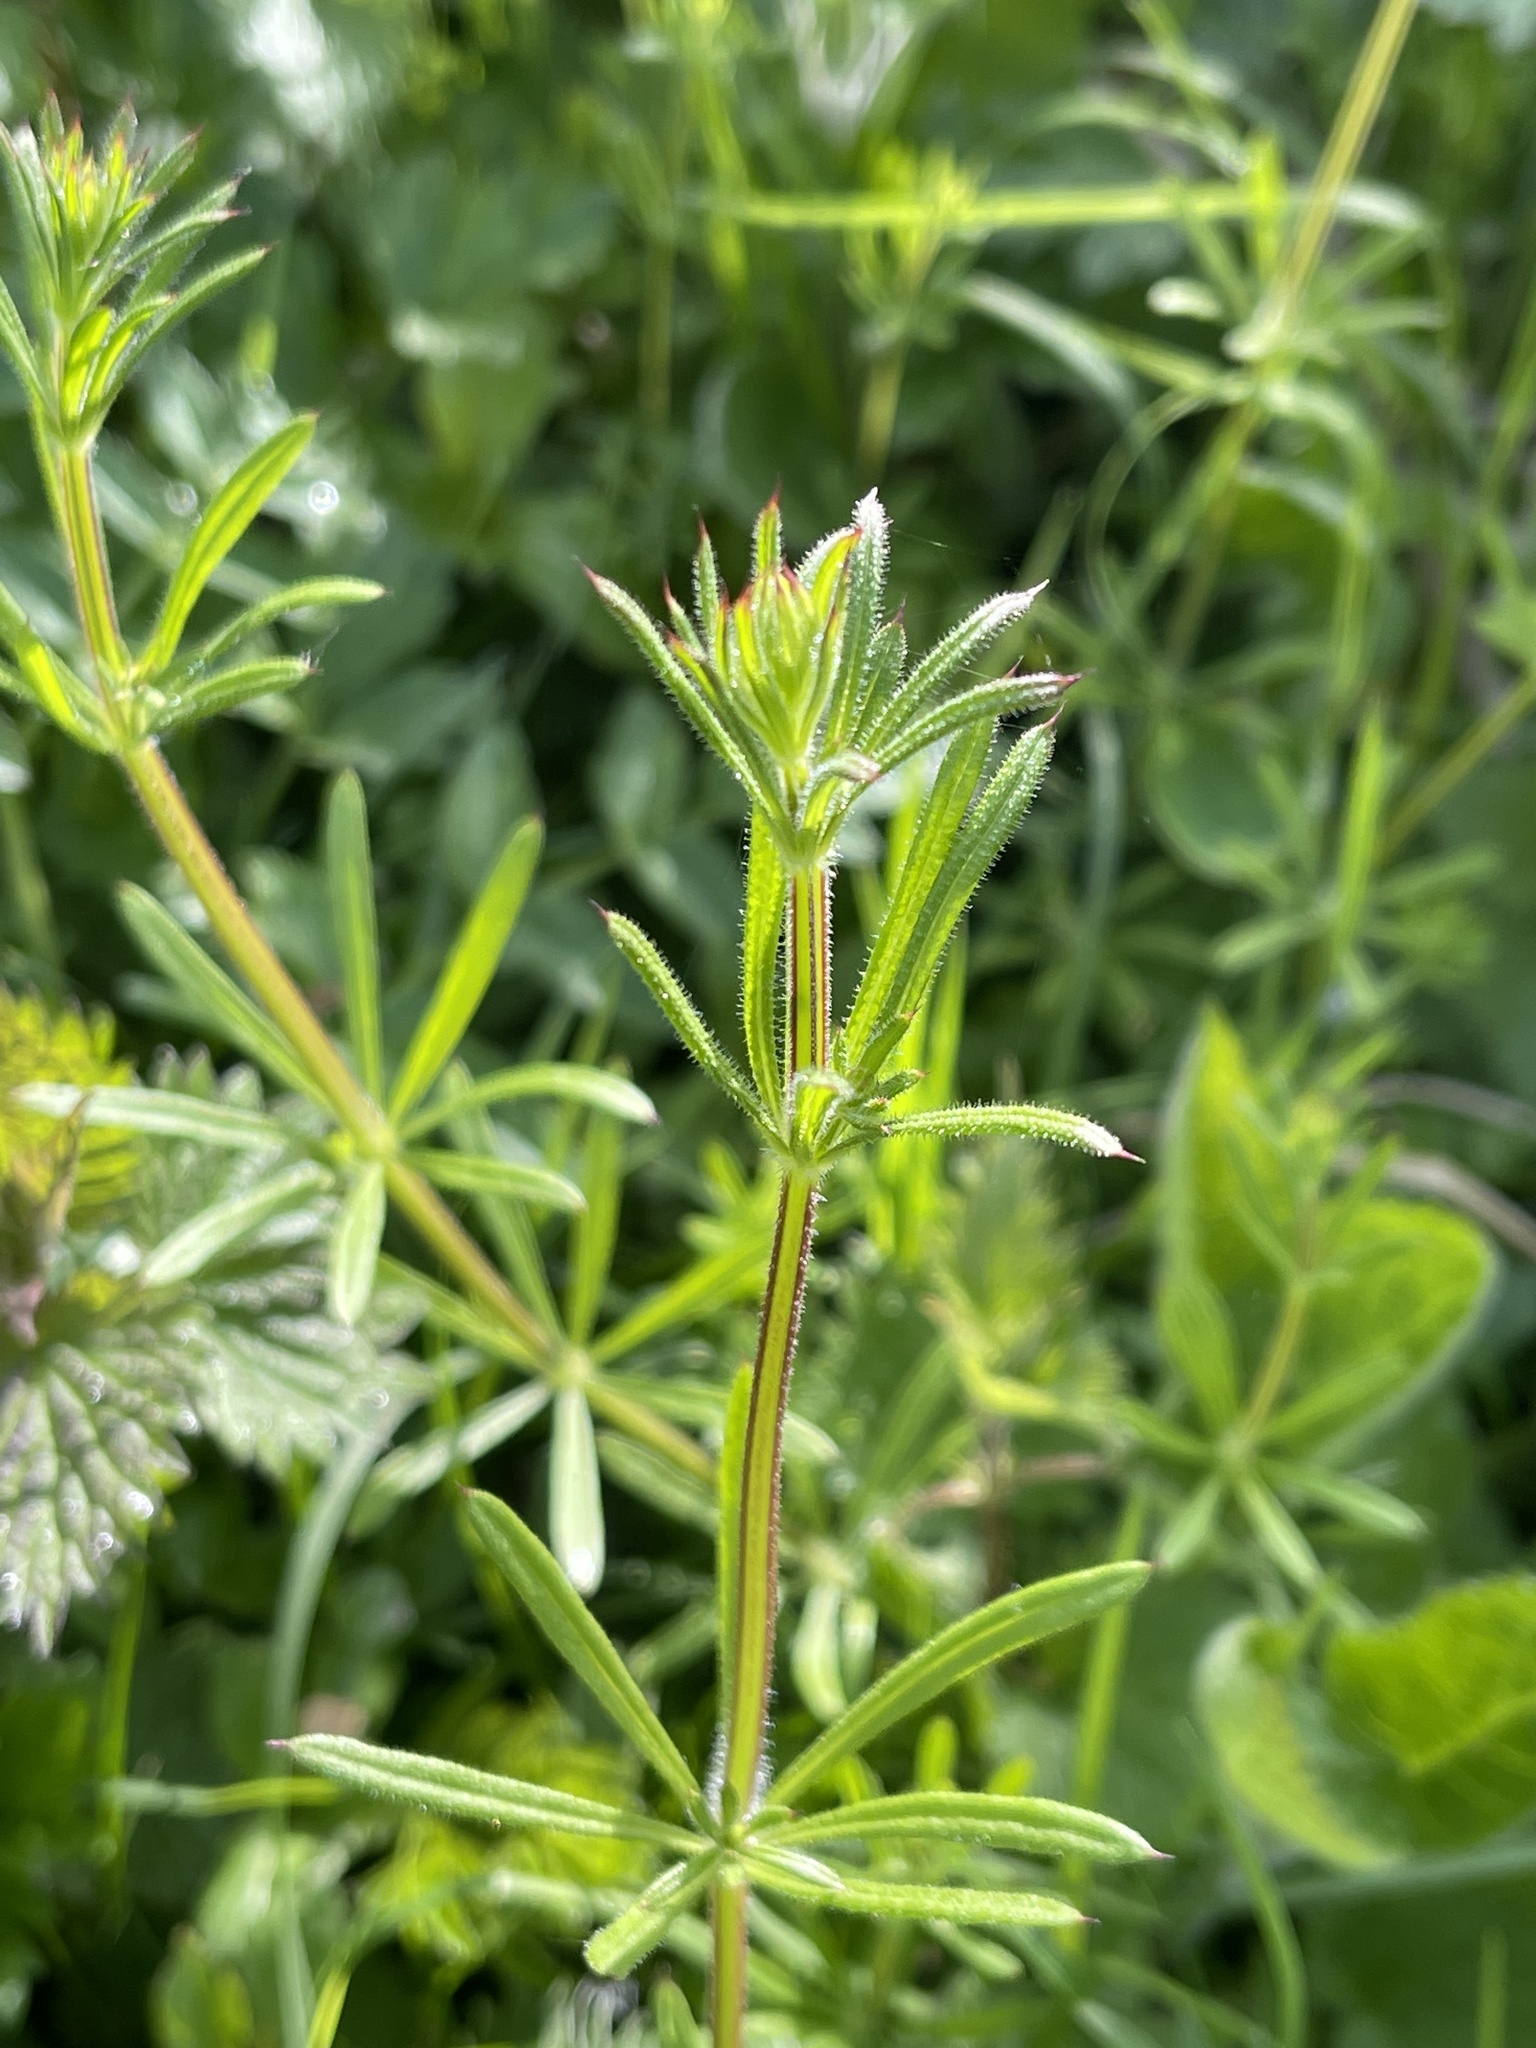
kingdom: Plantae
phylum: Tracheophyta
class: Magnoliopsida
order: Gentianales
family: Rubiaceae
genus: Galium
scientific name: Galium aparine
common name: Cleavers
